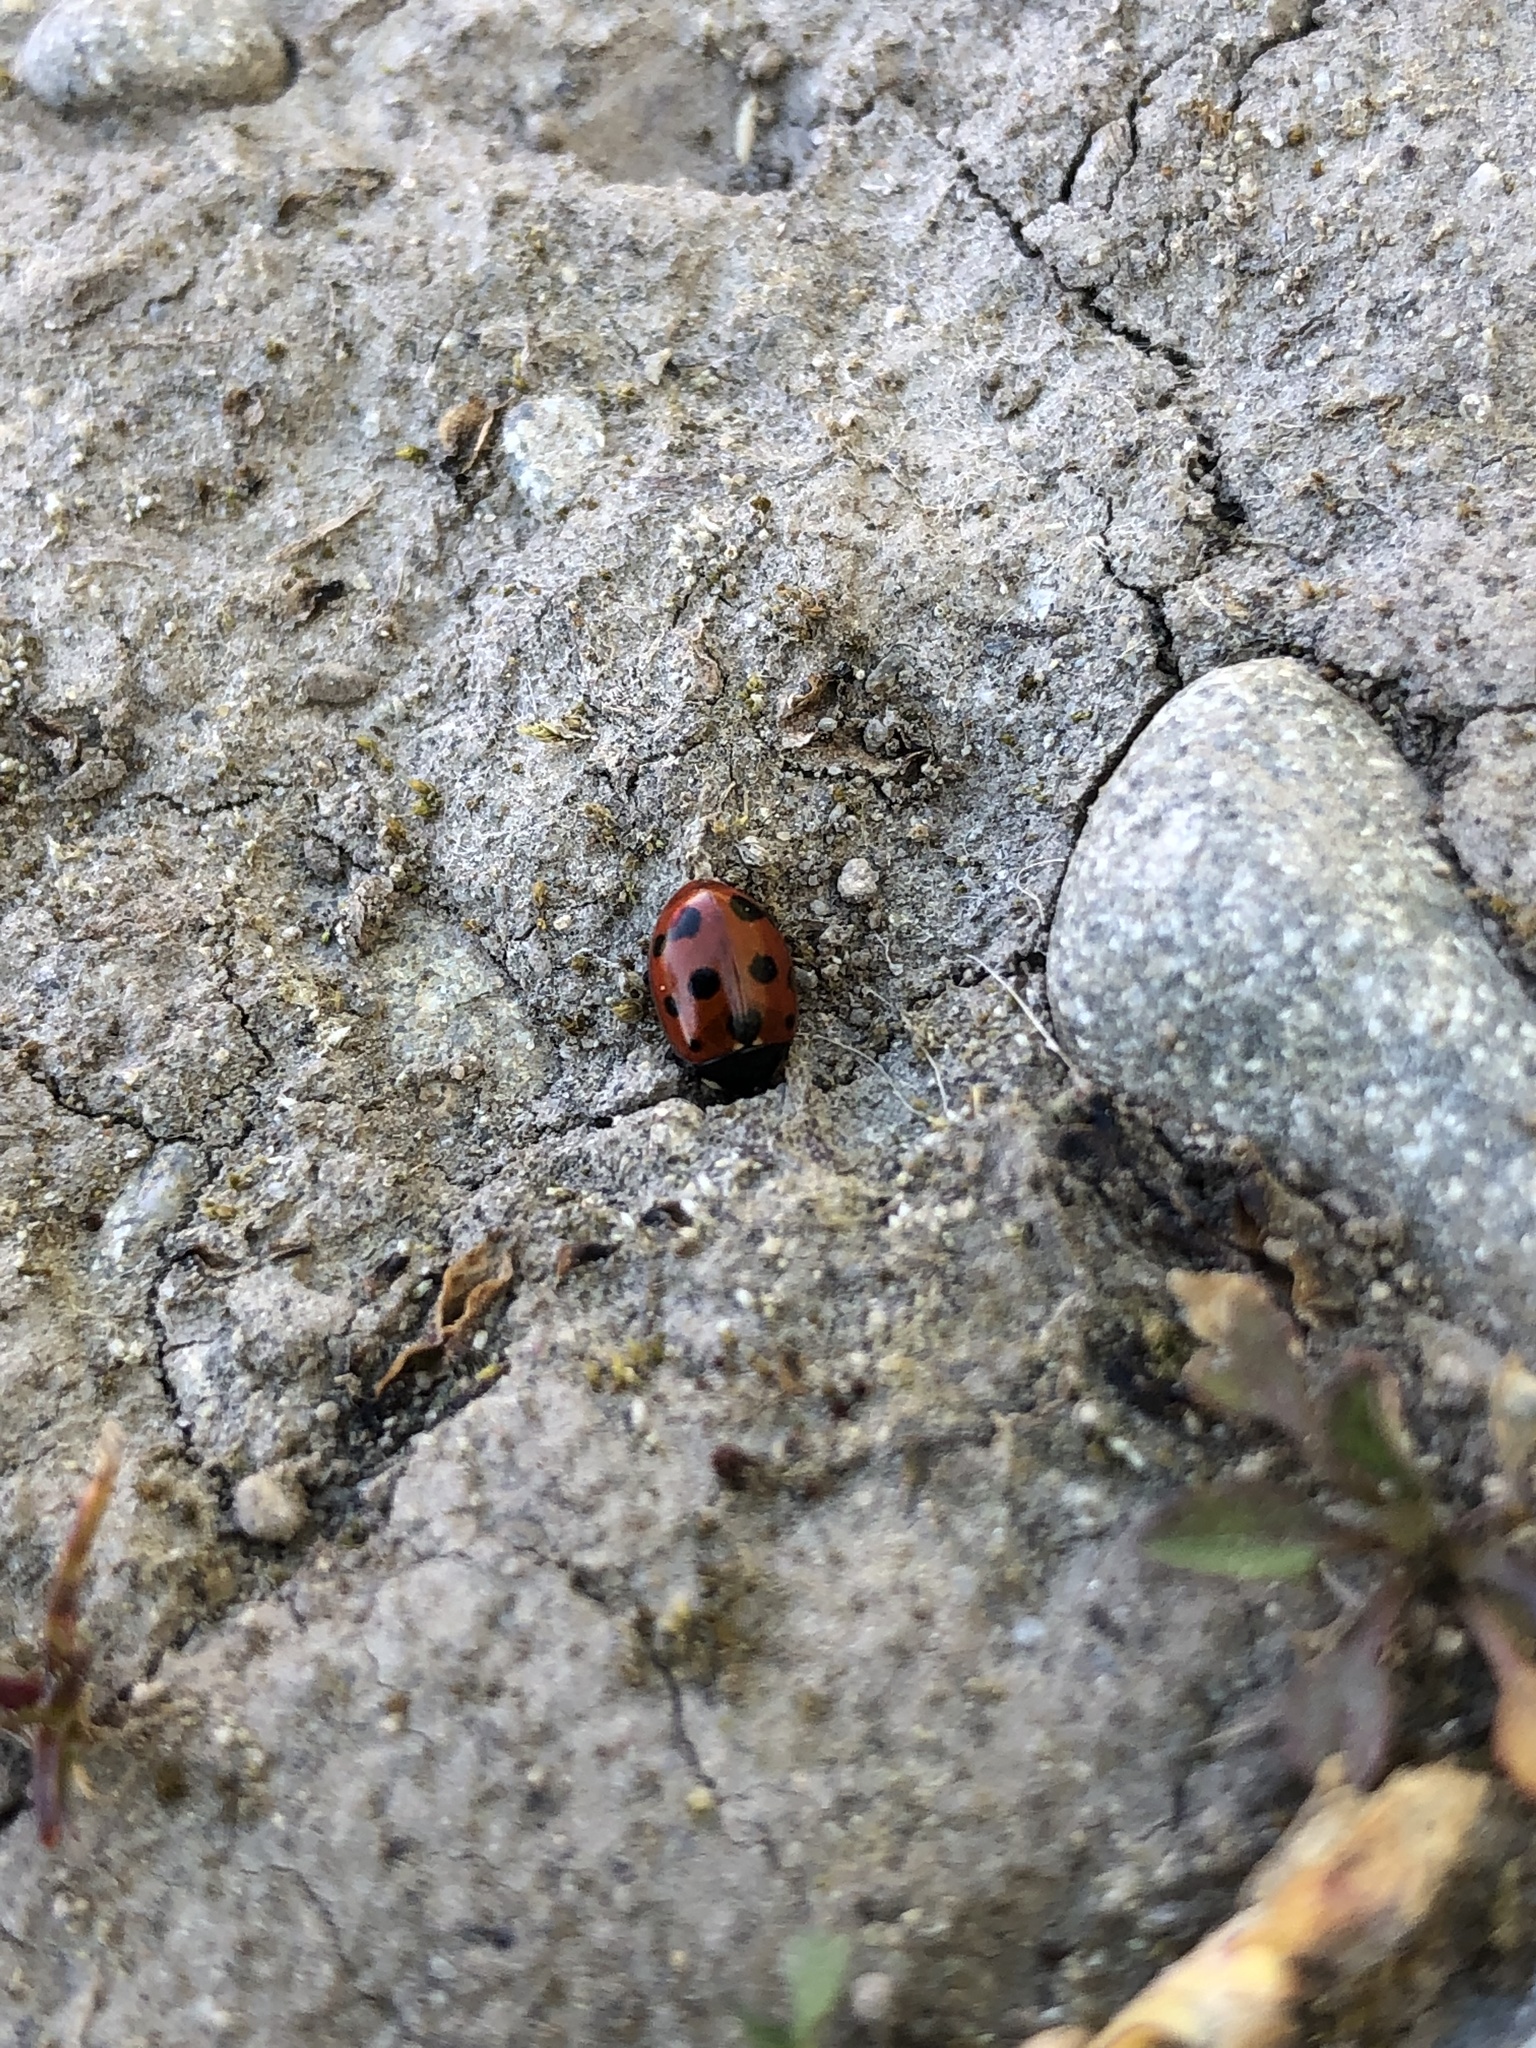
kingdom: Animalia
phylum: Arthropoda
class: Insecta
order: Coleoptera
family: Coccinellidae
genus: Coccinella
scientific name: Coccinella undecimpunctata
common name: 11-spot ladybird
